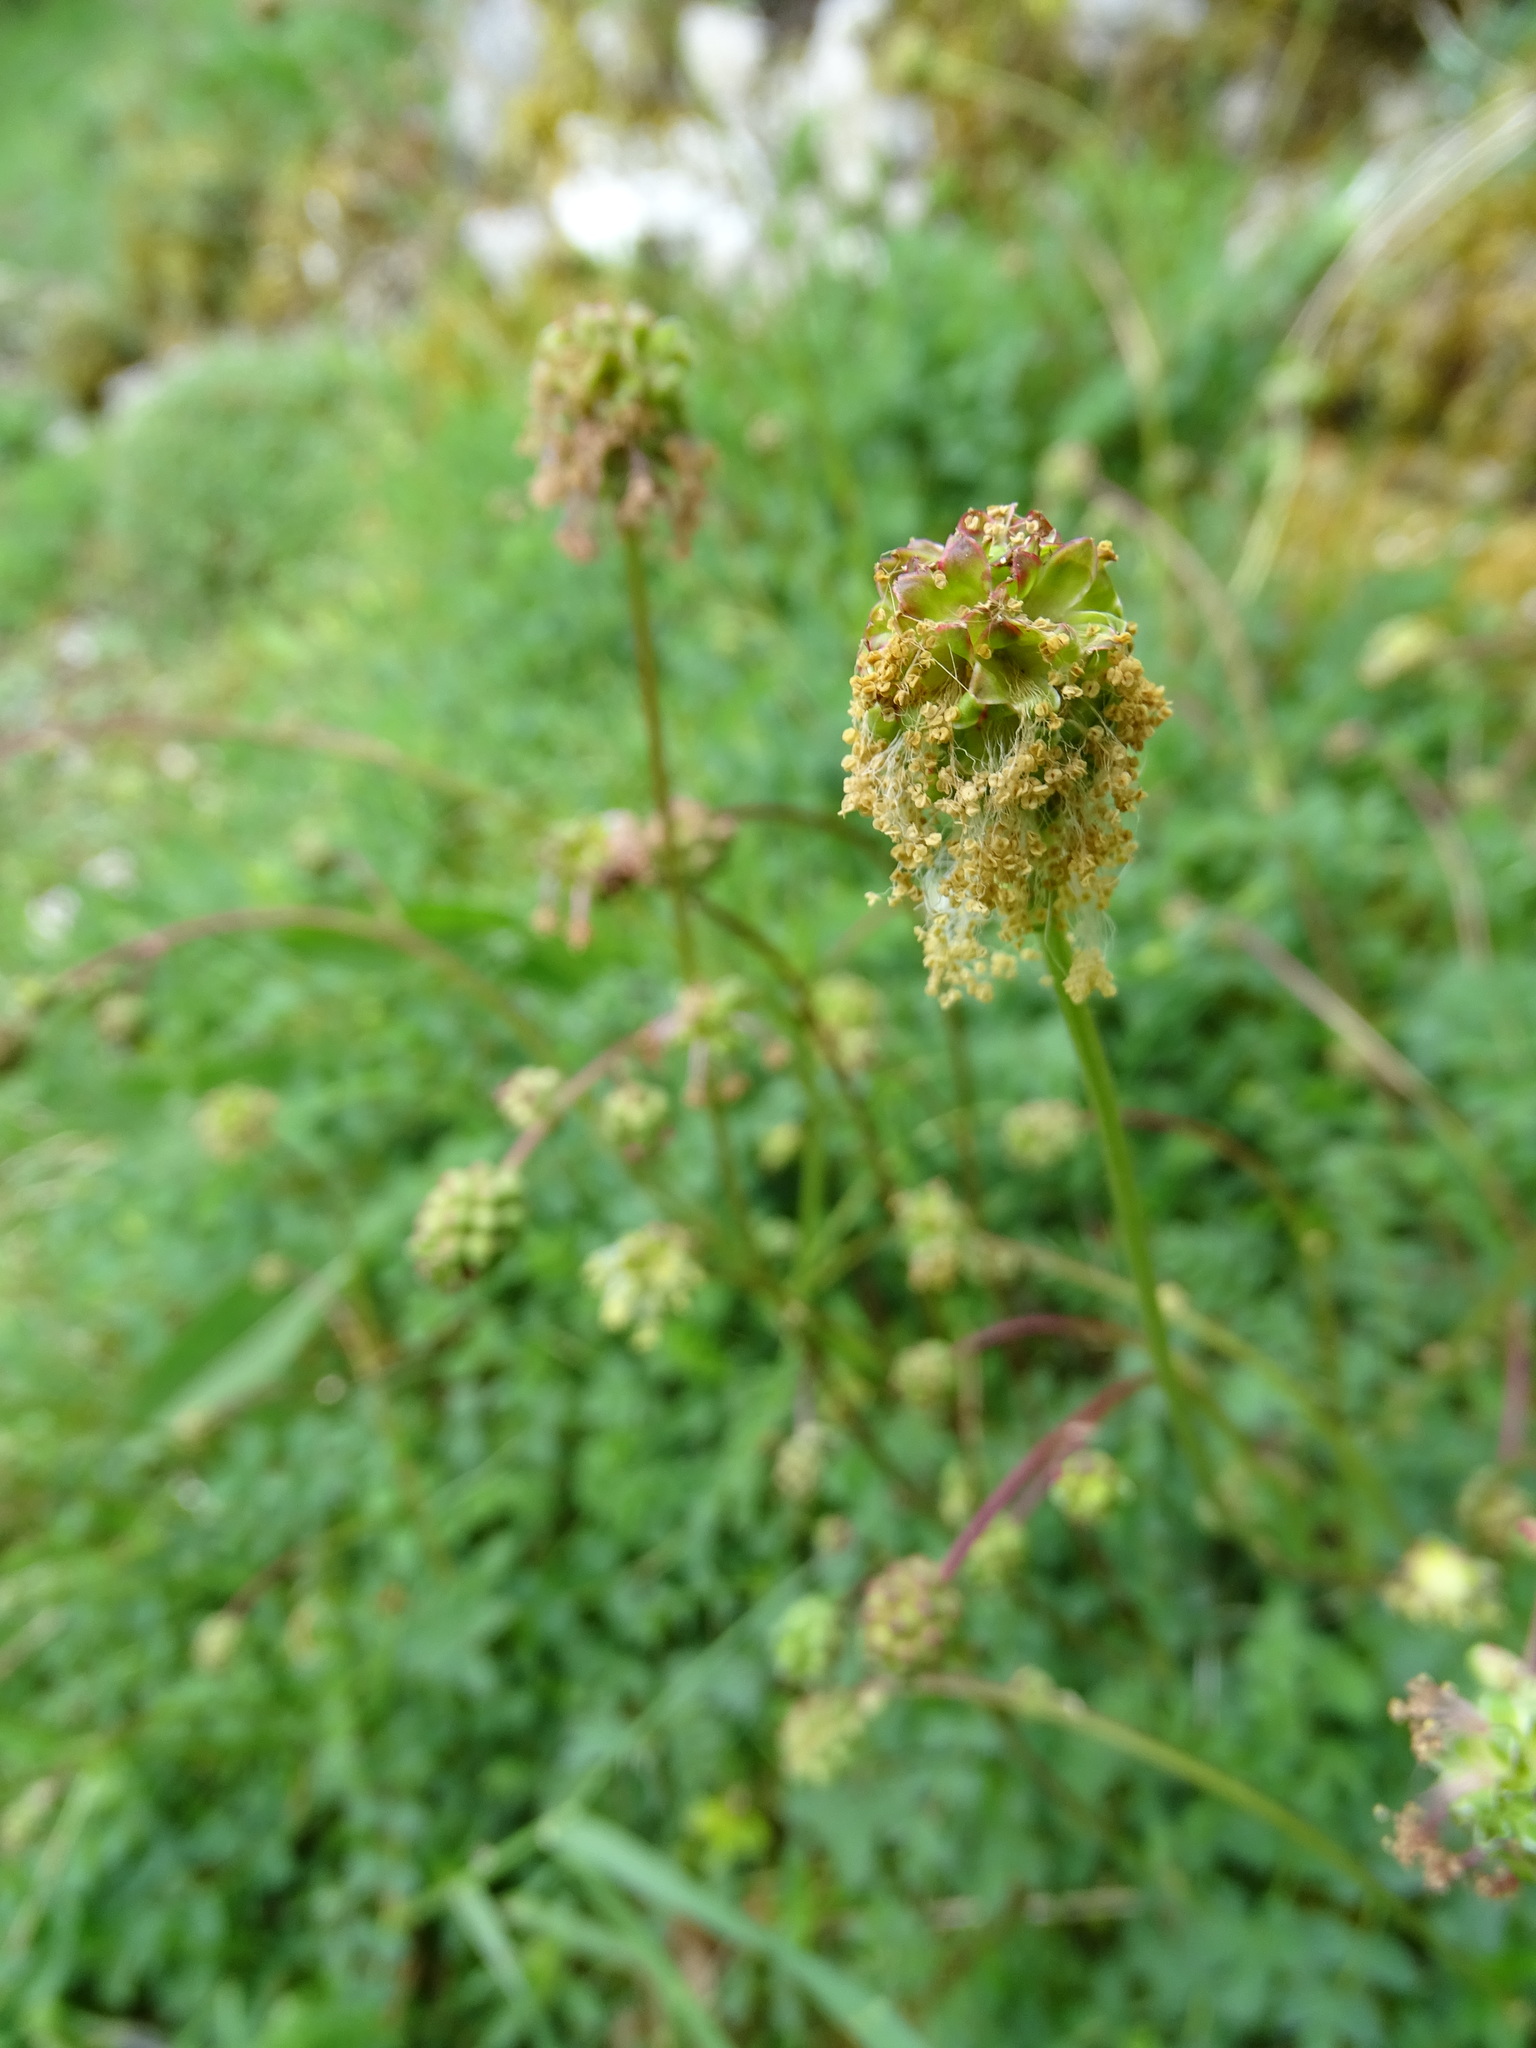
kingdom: Plantae
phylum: Tracheophyta
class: Magnoliopsida
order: Rosales
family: Rosaceae
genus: Poterium
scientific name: Poterium sanguisorba
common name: Salad burnet
